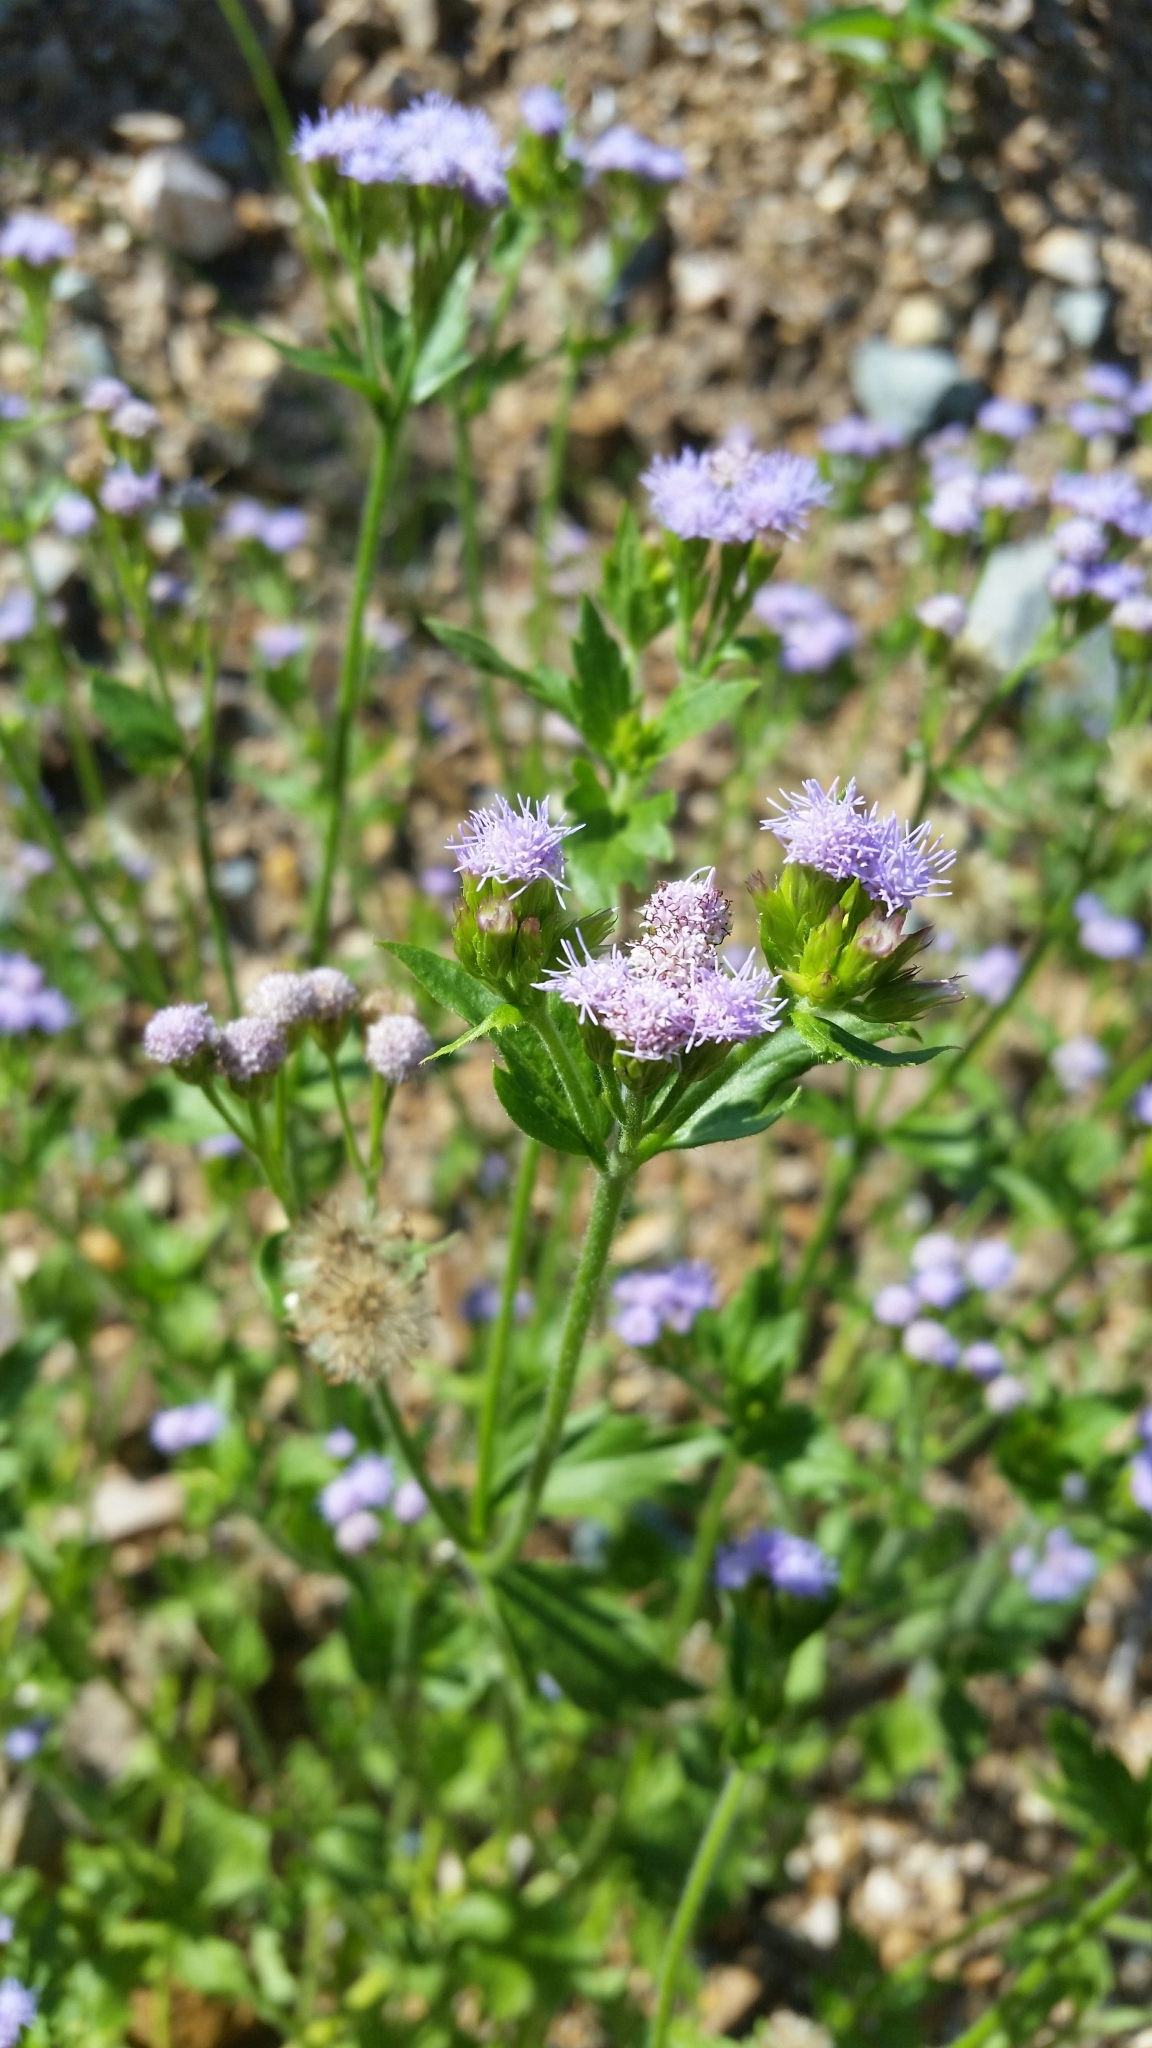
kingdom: Plantae
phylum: Tracheophyta
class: Magnoliopsida
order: Asterales
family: Asteraceae
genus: Praxelis
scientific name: Praxelis clematidea
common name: Praxelis
